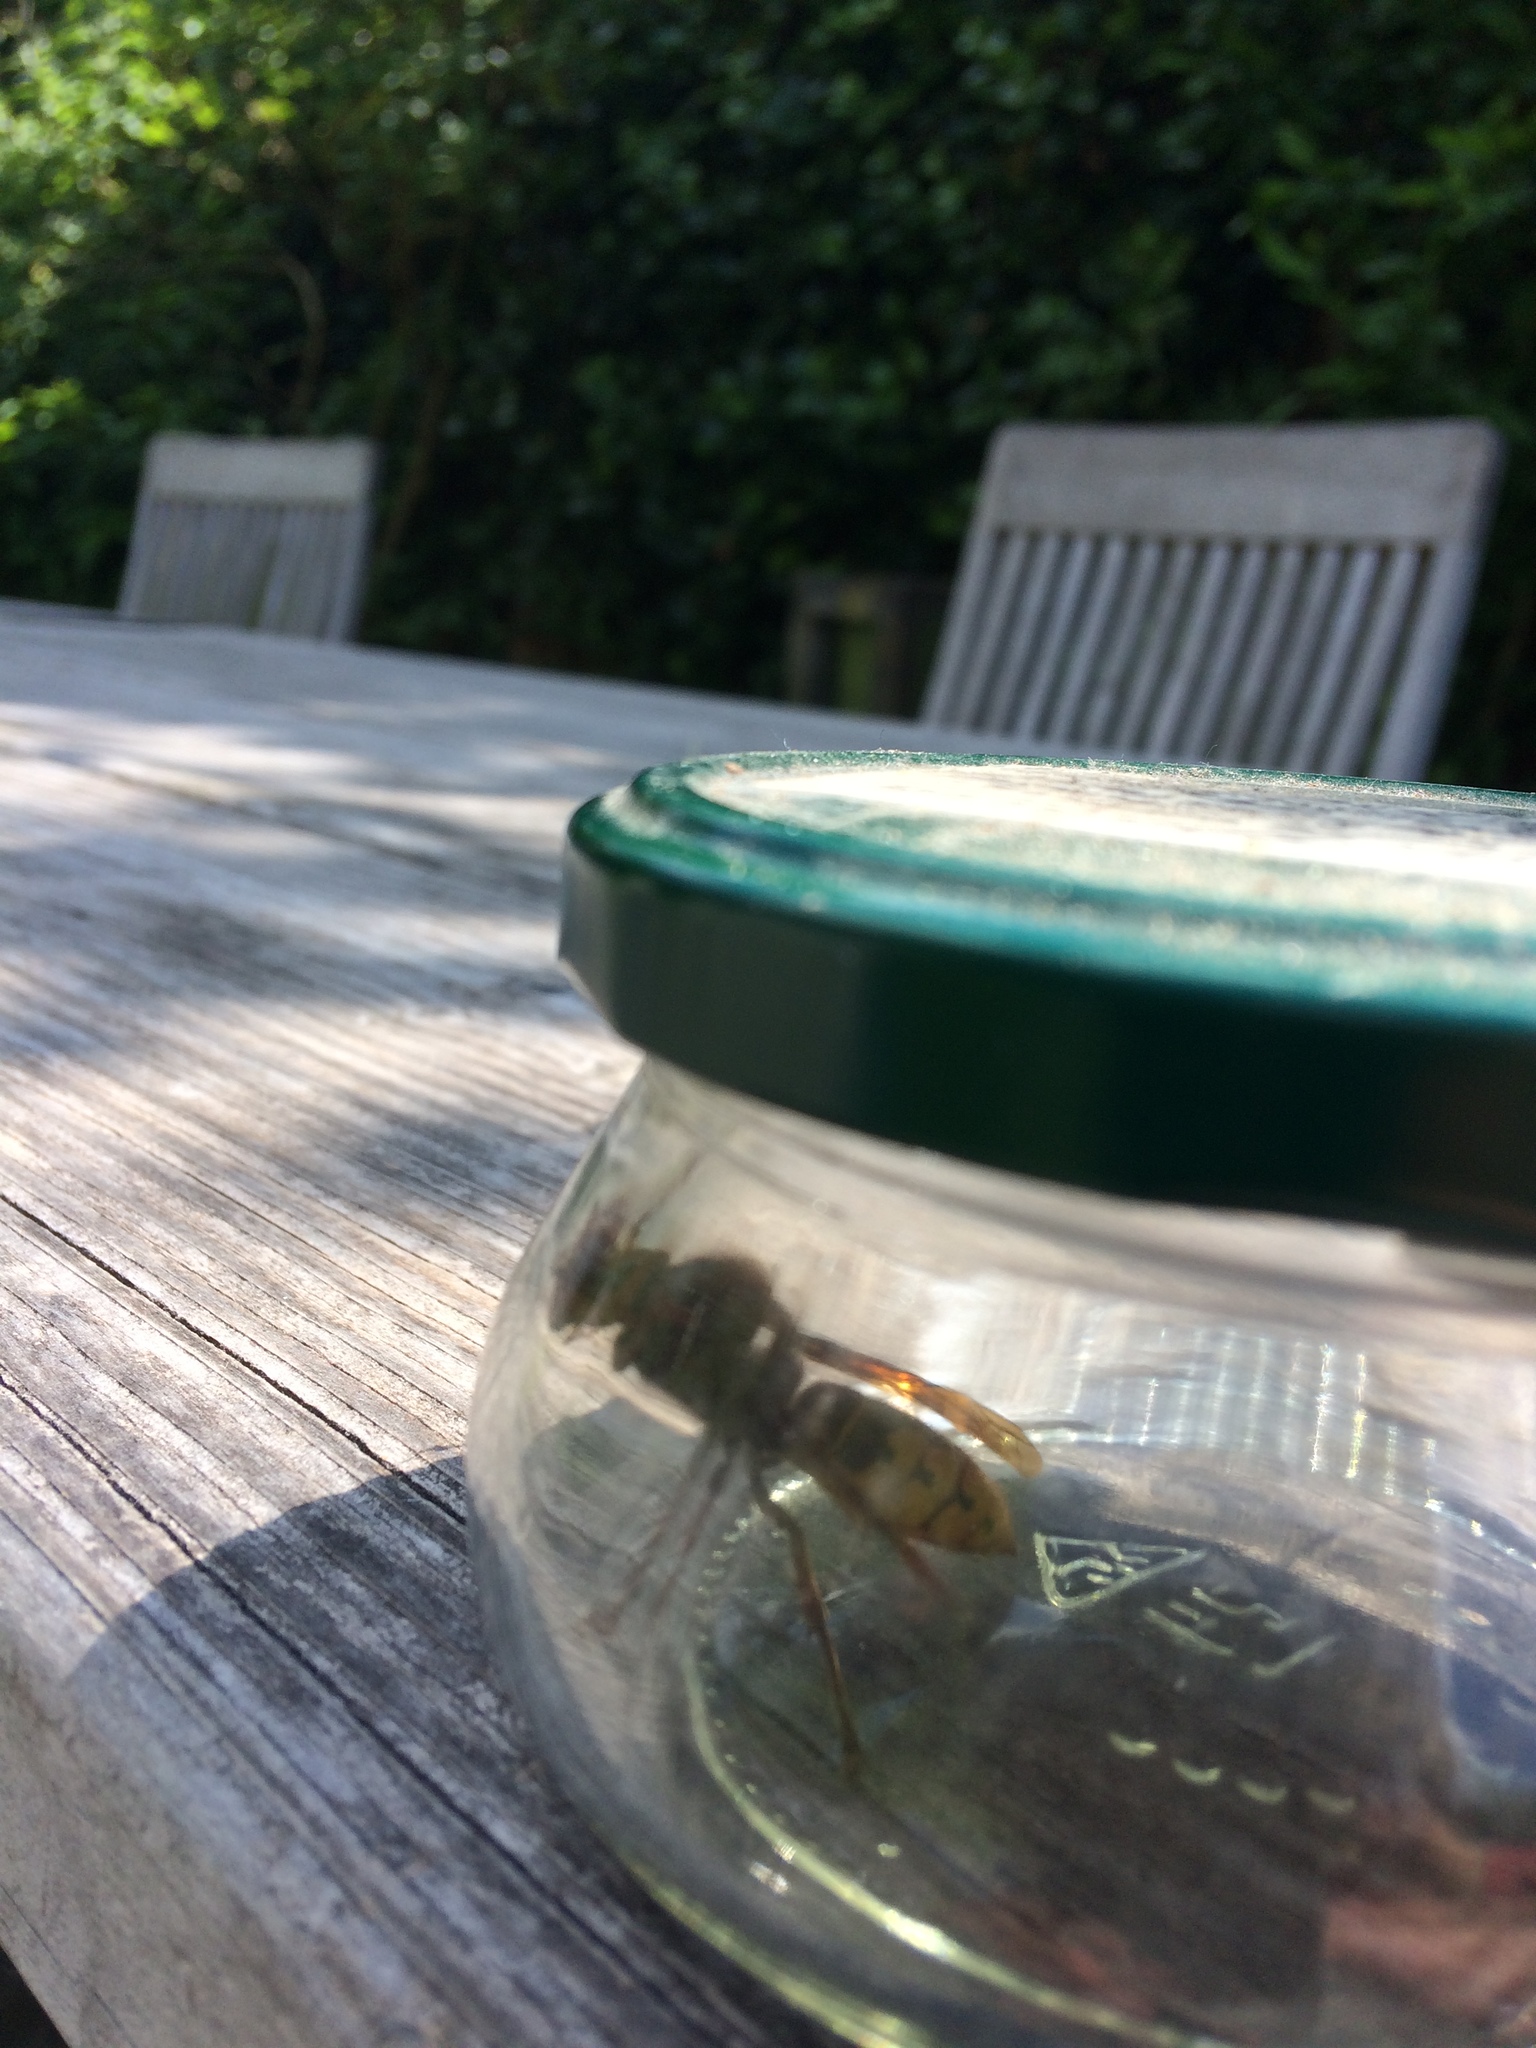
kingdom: Animalia
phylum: Arthropoda
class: Insecta
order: Hymenoptera
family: Vespidae
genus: Vespa
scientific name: Vespa crabro
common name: Hornet
